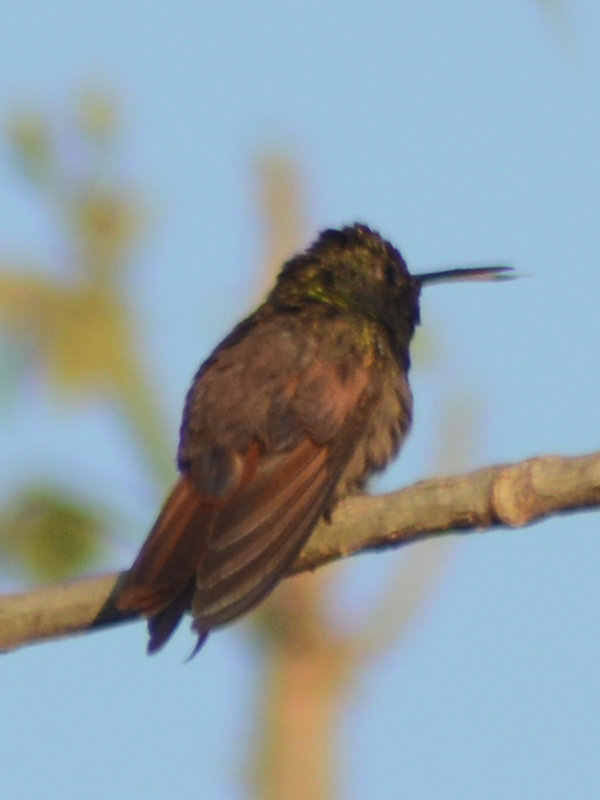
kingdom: Animalia
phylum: Chordata
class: Aves
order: Apodiformes
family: Trochilidae
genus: Saucerottia
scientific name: Saucerottia beryllina
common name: Berylline hummingbird
